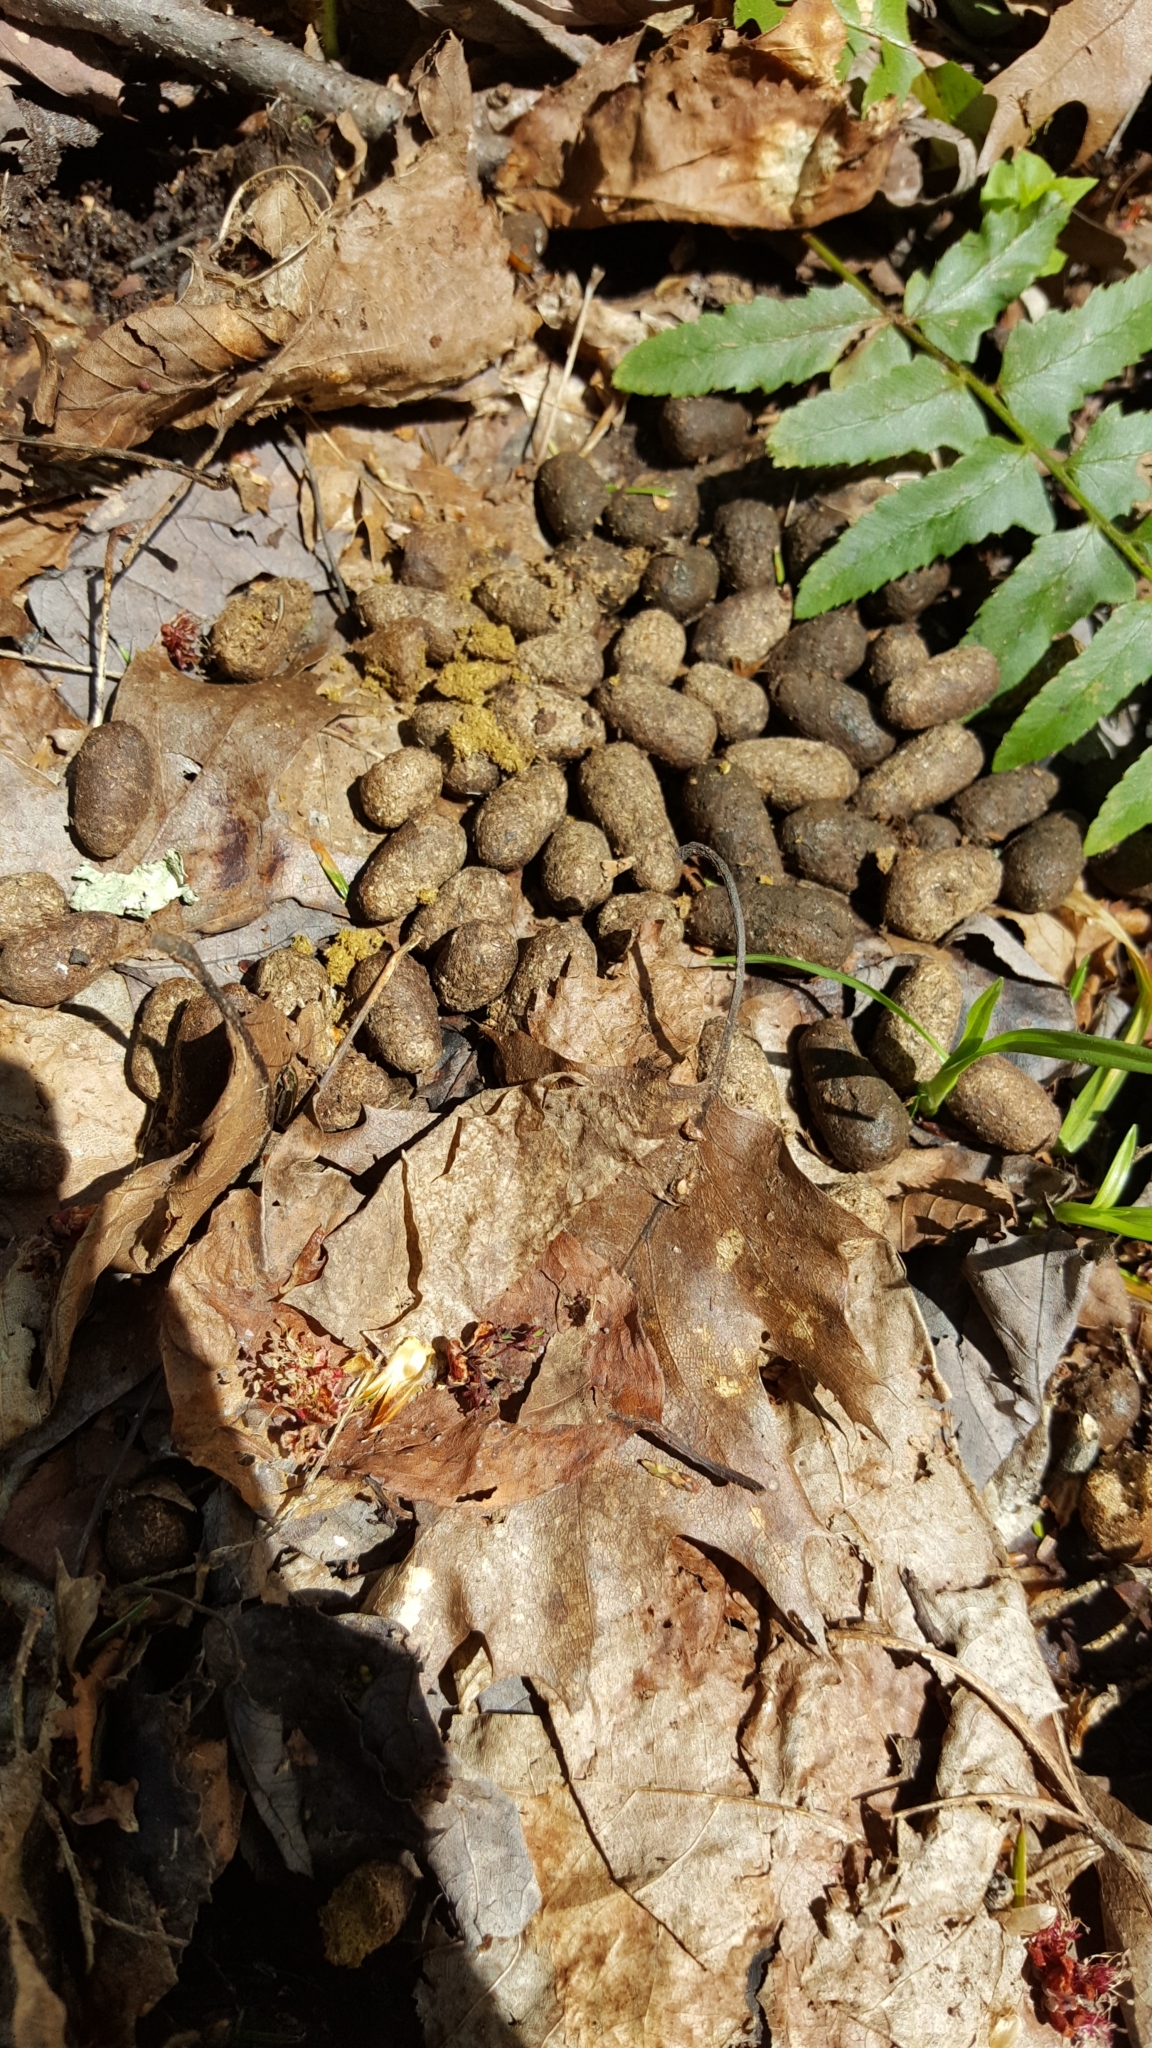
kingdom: Animalia
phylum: Chordata
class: Mammalia
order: Rodentia
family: Erethizontidae
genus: Erethizon
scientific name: Erethizon dorsatus
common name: North american porcupine
